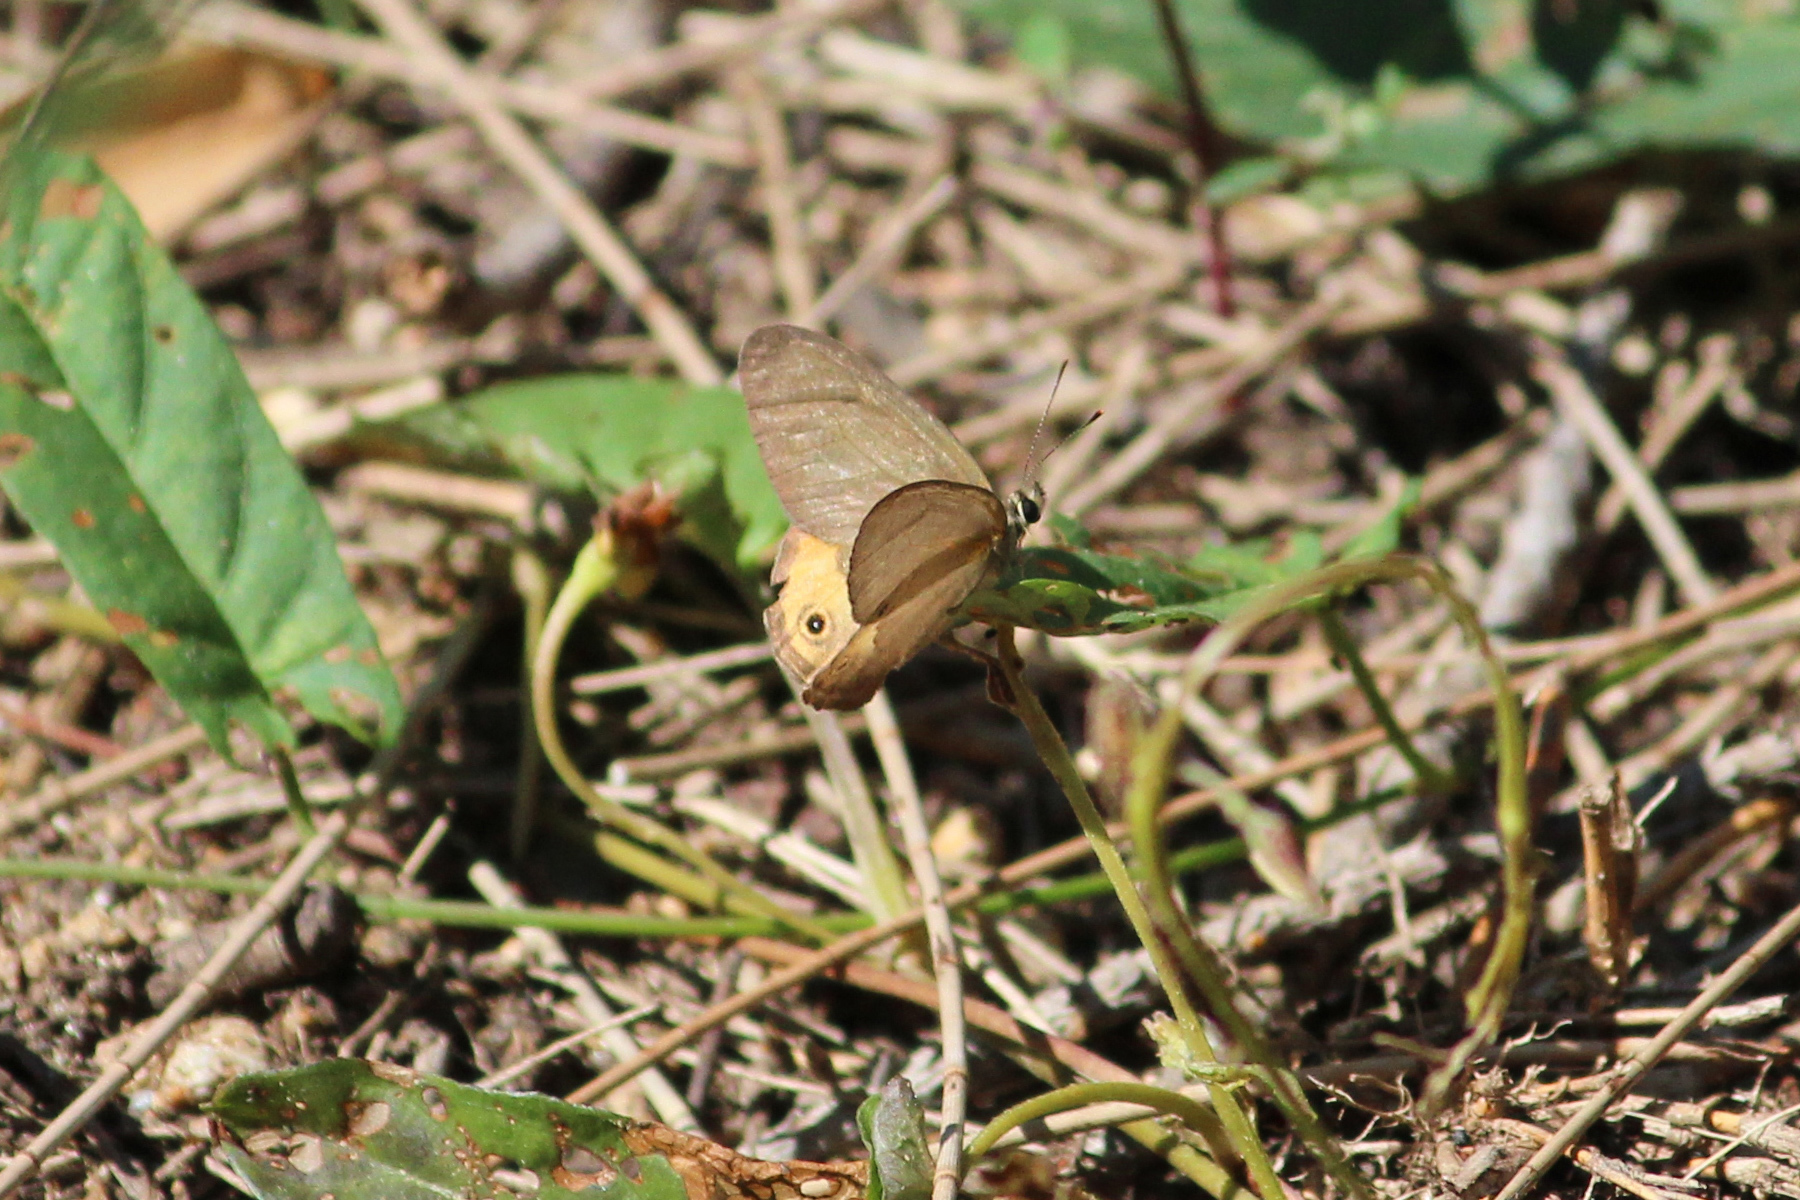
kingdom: Animalia
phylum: Arthropoda
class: Insecta
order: Lepidoptera
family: Nymphalidae
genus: Hypocysta
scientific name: Hypocysta metirius
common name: Brown ringlet
